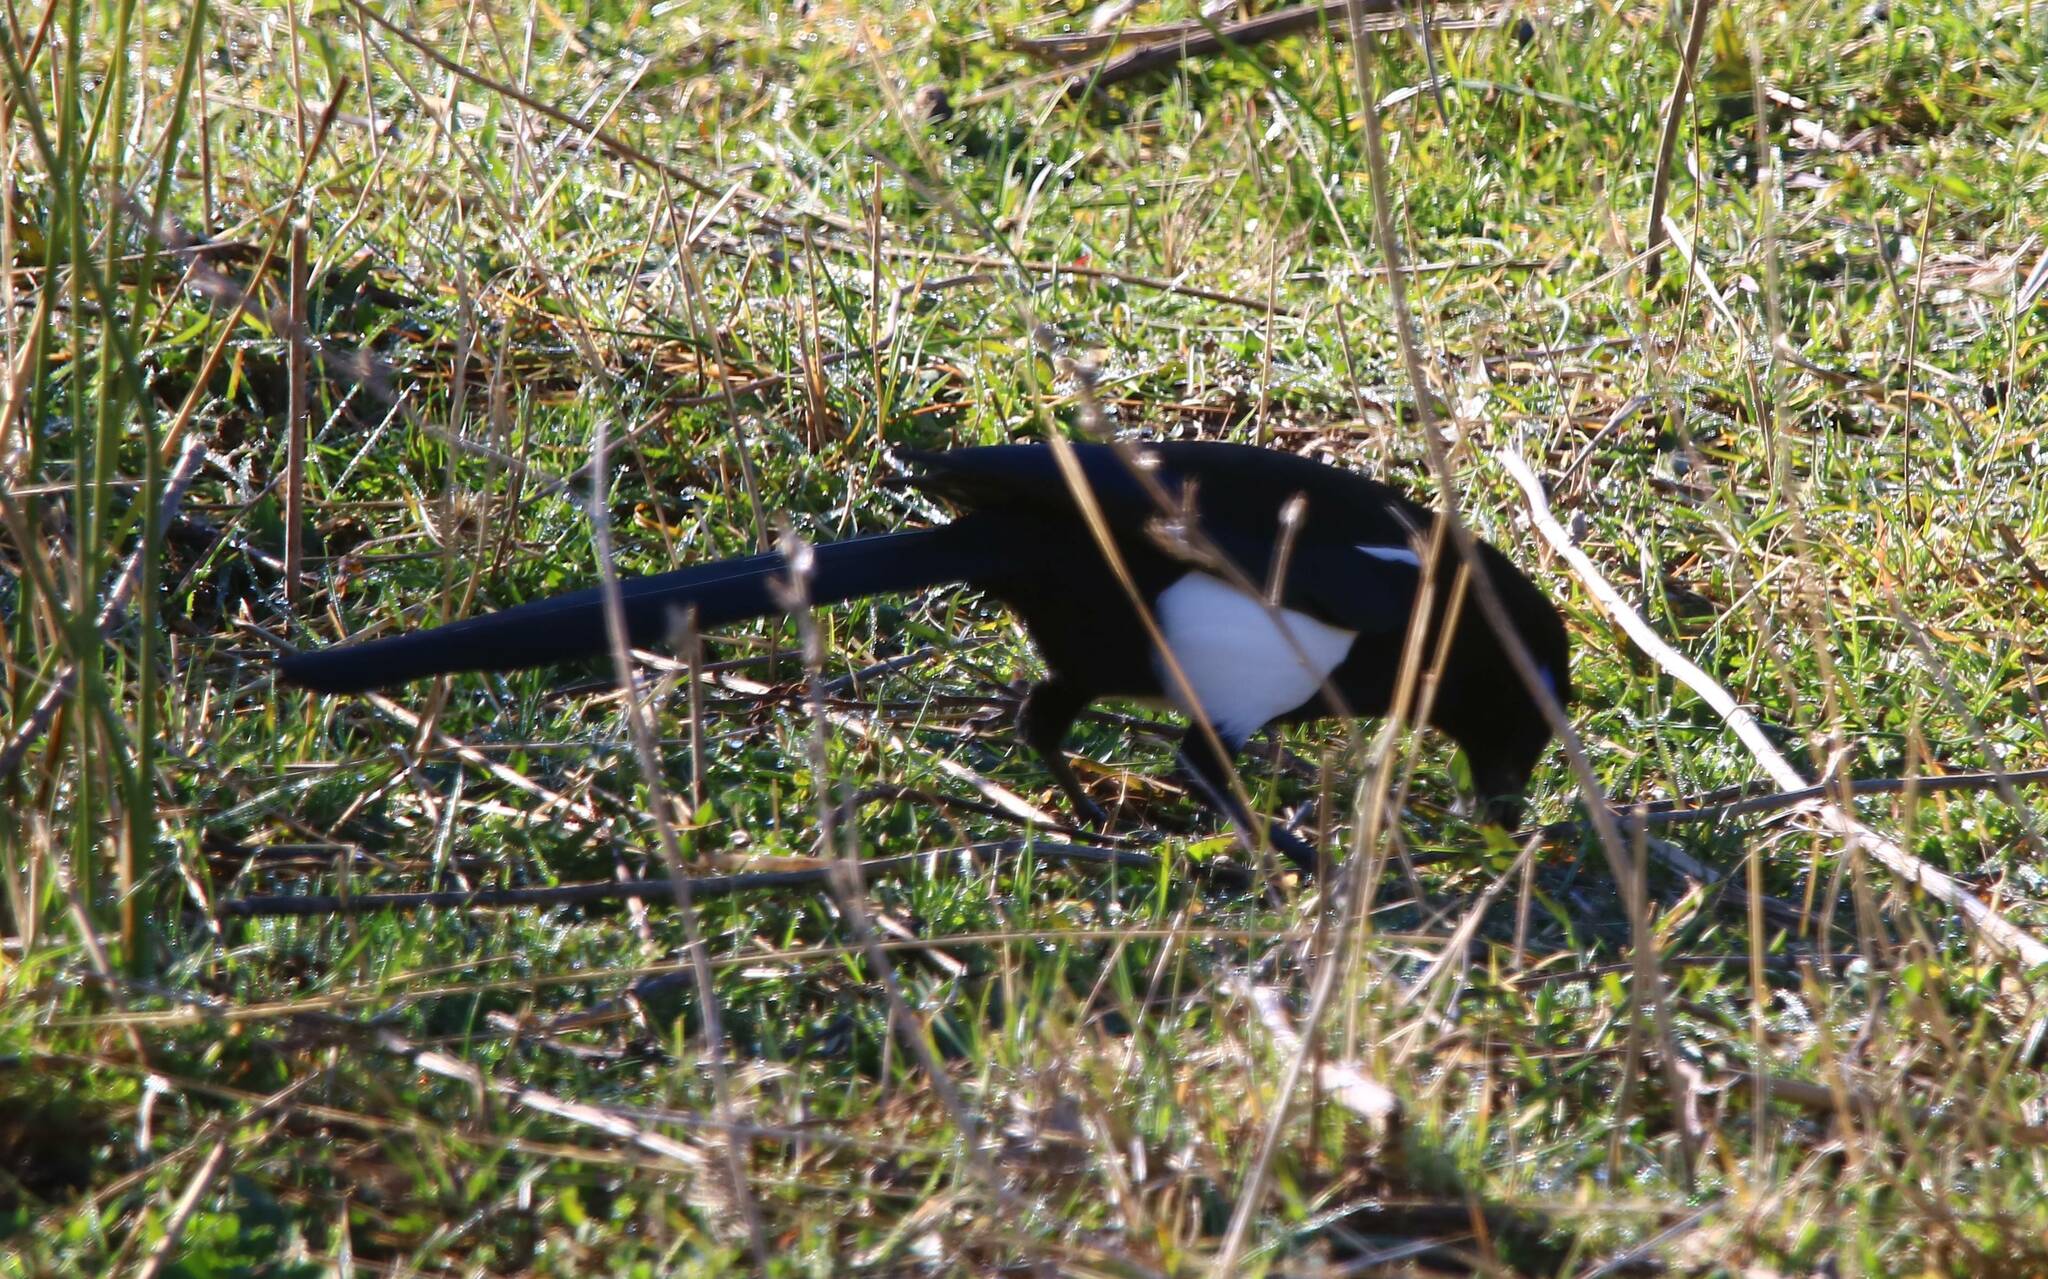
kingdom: Animalia
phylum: Chordata
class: Aves
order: Passeriformes
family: Corvidae
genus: Pica
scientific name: Pica mauritanica
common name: Maghreb magpie
